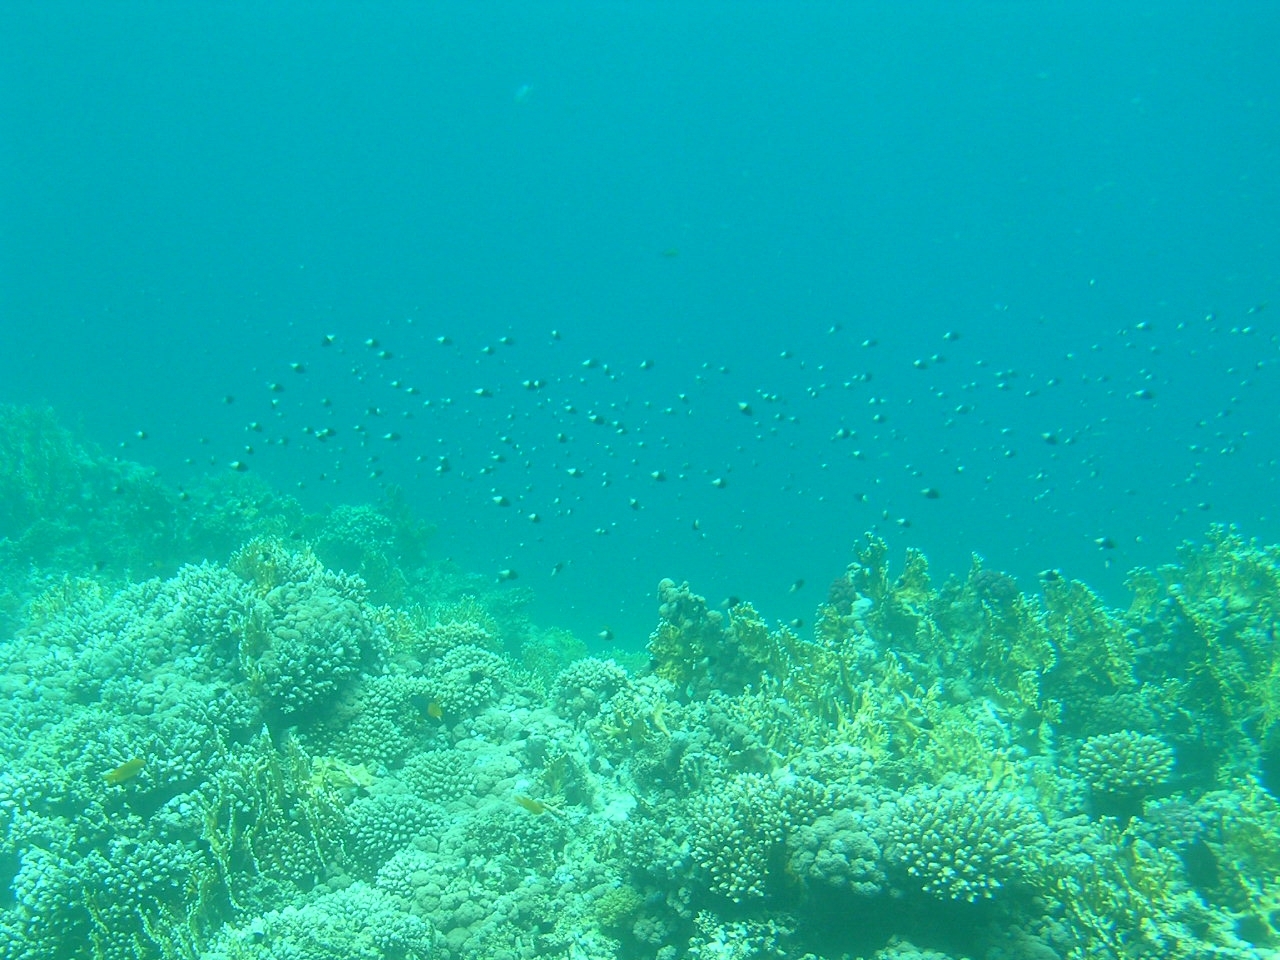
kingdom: Animalia
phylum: Chordata
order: Perciformes
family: Pomacentridae
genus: Chromis
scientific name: Chromis dimidiata
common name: Half-and-half chromis
